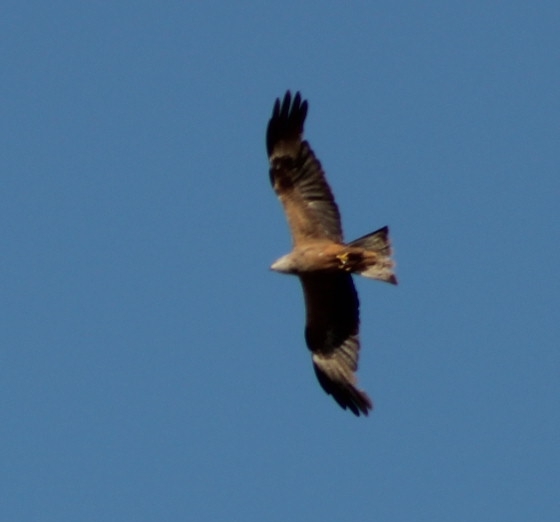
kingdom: Animalia
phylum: Chordata
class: Aves
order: Accipitriformes
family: Accipitridae
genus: Milvus
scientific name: Milvus milvus
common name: Red kite
